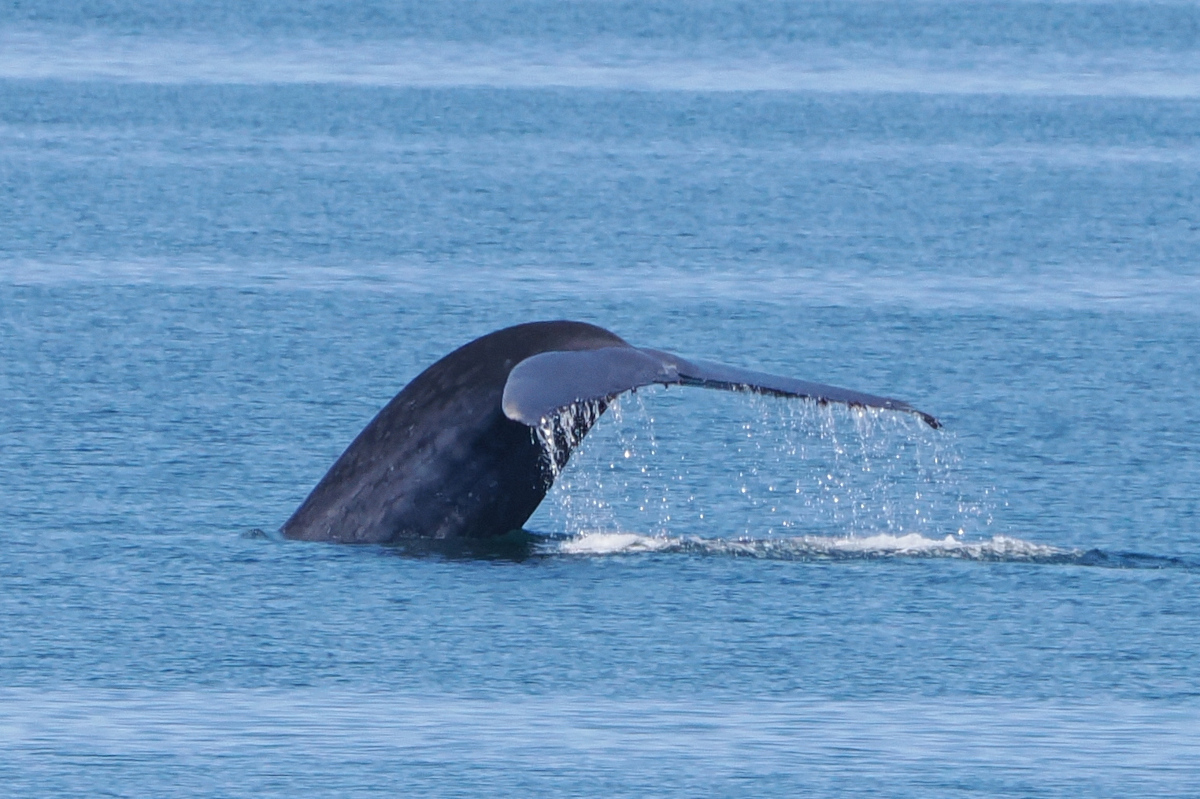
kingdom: Animalia
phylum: Chordata
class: Mammalia
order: Cetacea
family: Balaenopteridae
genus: Balaenoptera
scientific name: Balaenoptera musculus
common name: Blue whale
